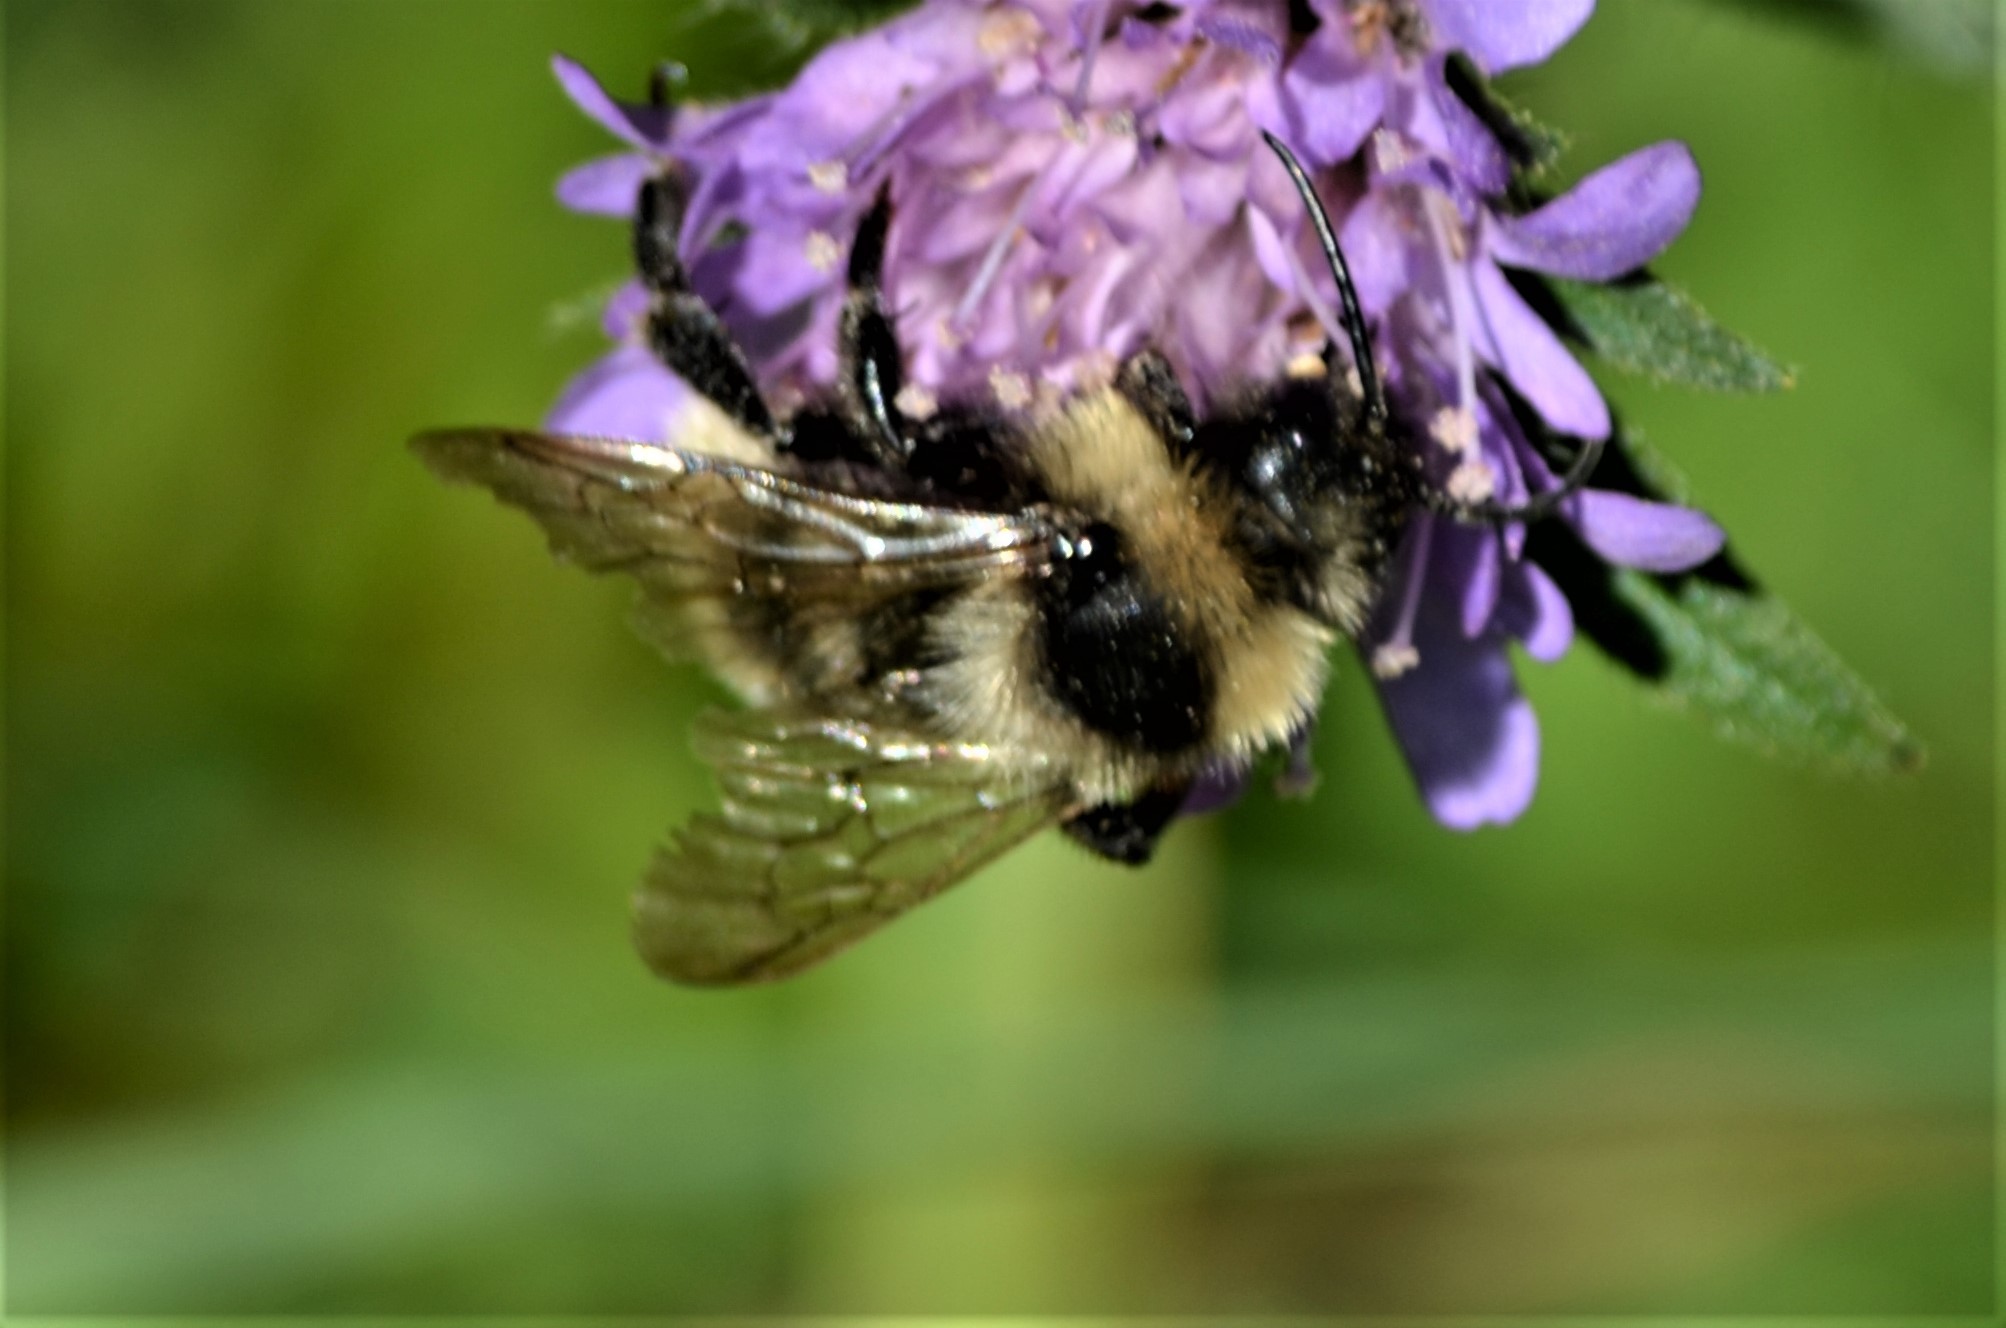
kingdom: Animalia
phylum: Arthropoda
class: Insecta
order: Hymenoptera
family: Apidae
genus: Bombus
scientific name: Bombus campestris
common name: Field cuckoo-bee
